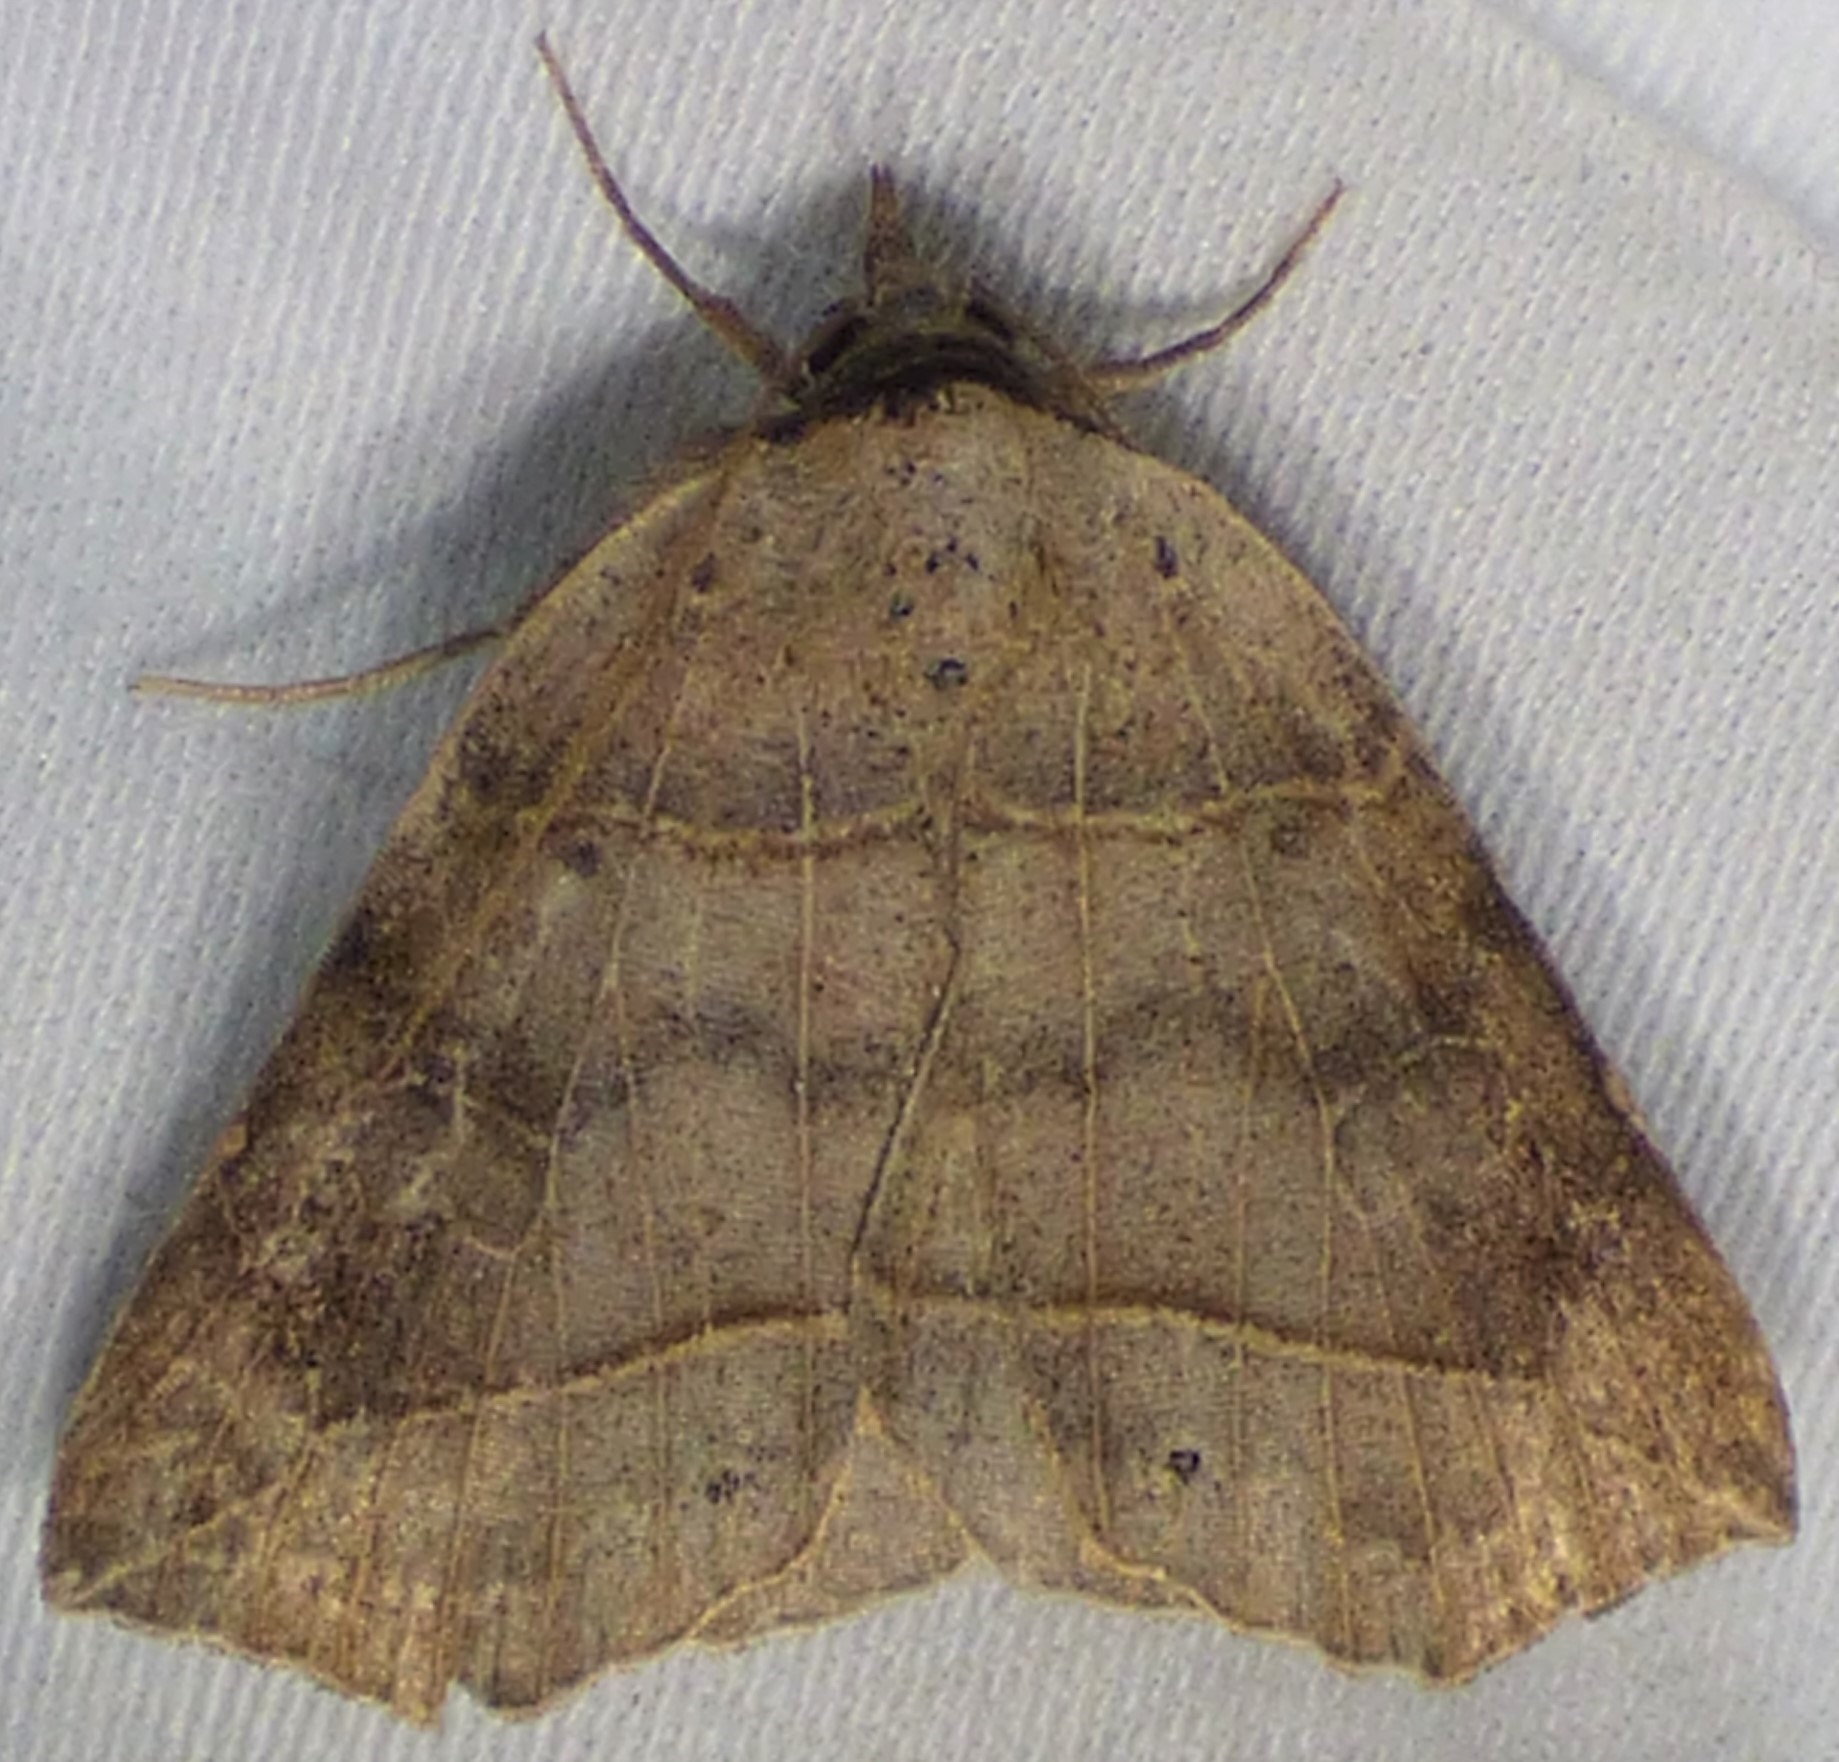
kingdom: Animalia
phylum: Arthropoda
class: Insecta
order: Lepidoptera
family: Erebidae
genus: Isogona
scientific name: Isogona tenuis
